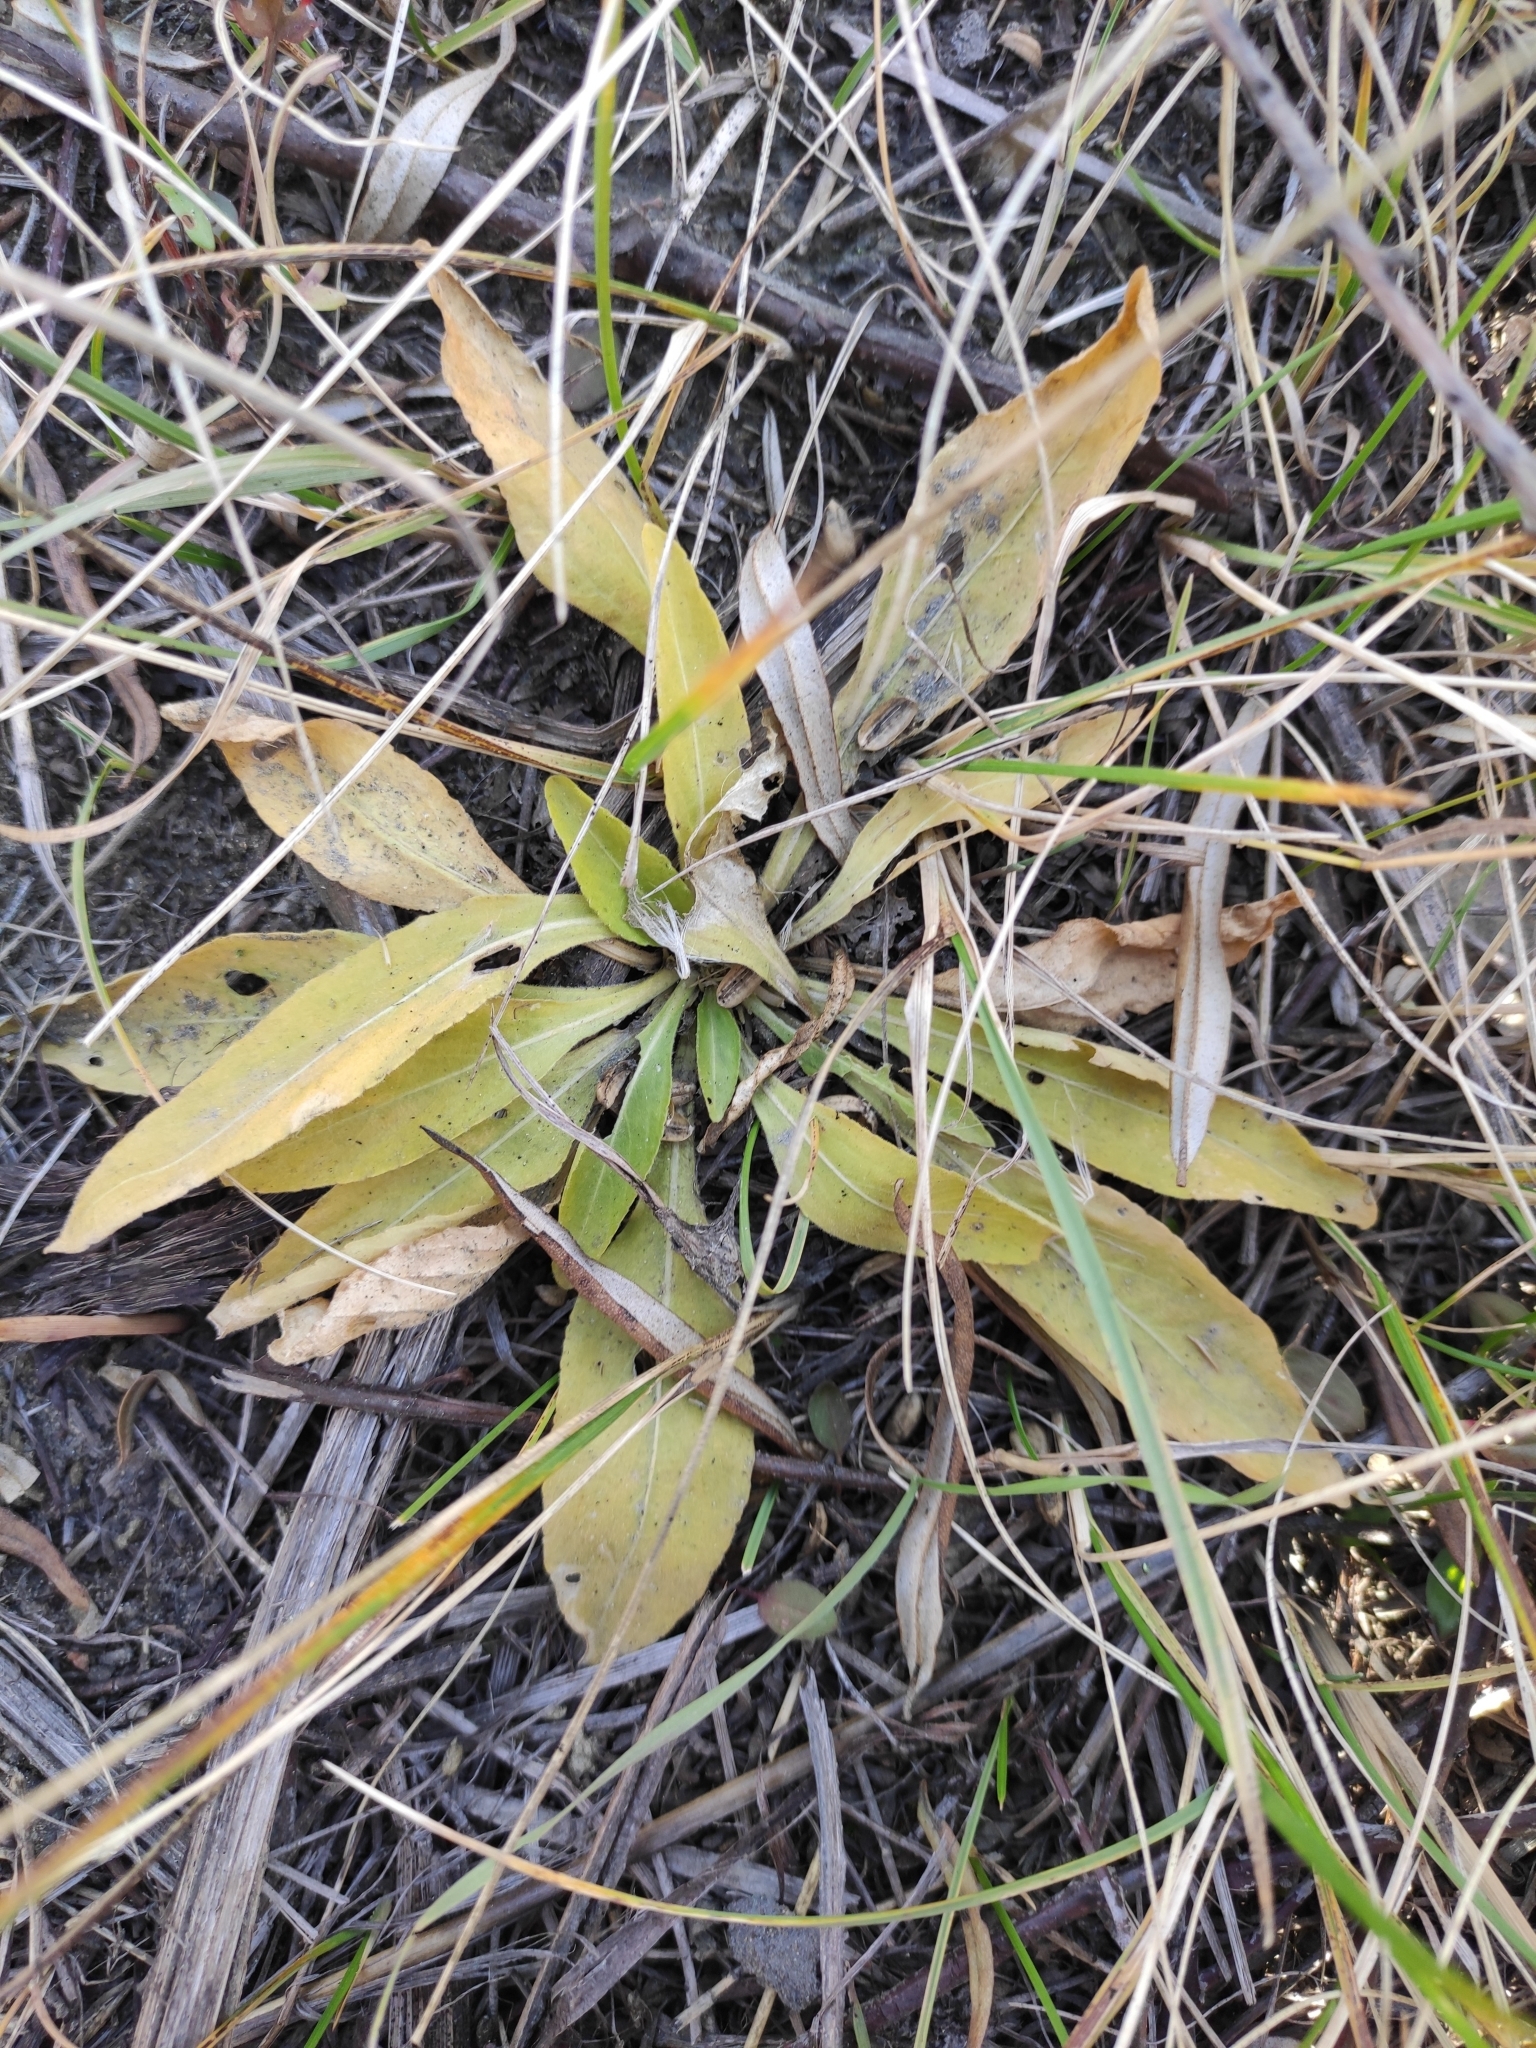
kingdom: Plantae
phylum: Tracheophyta
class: Magnoliopsida
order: Malpighiales
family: Violaceae
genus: Viola
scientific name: Viola gmeliniana
